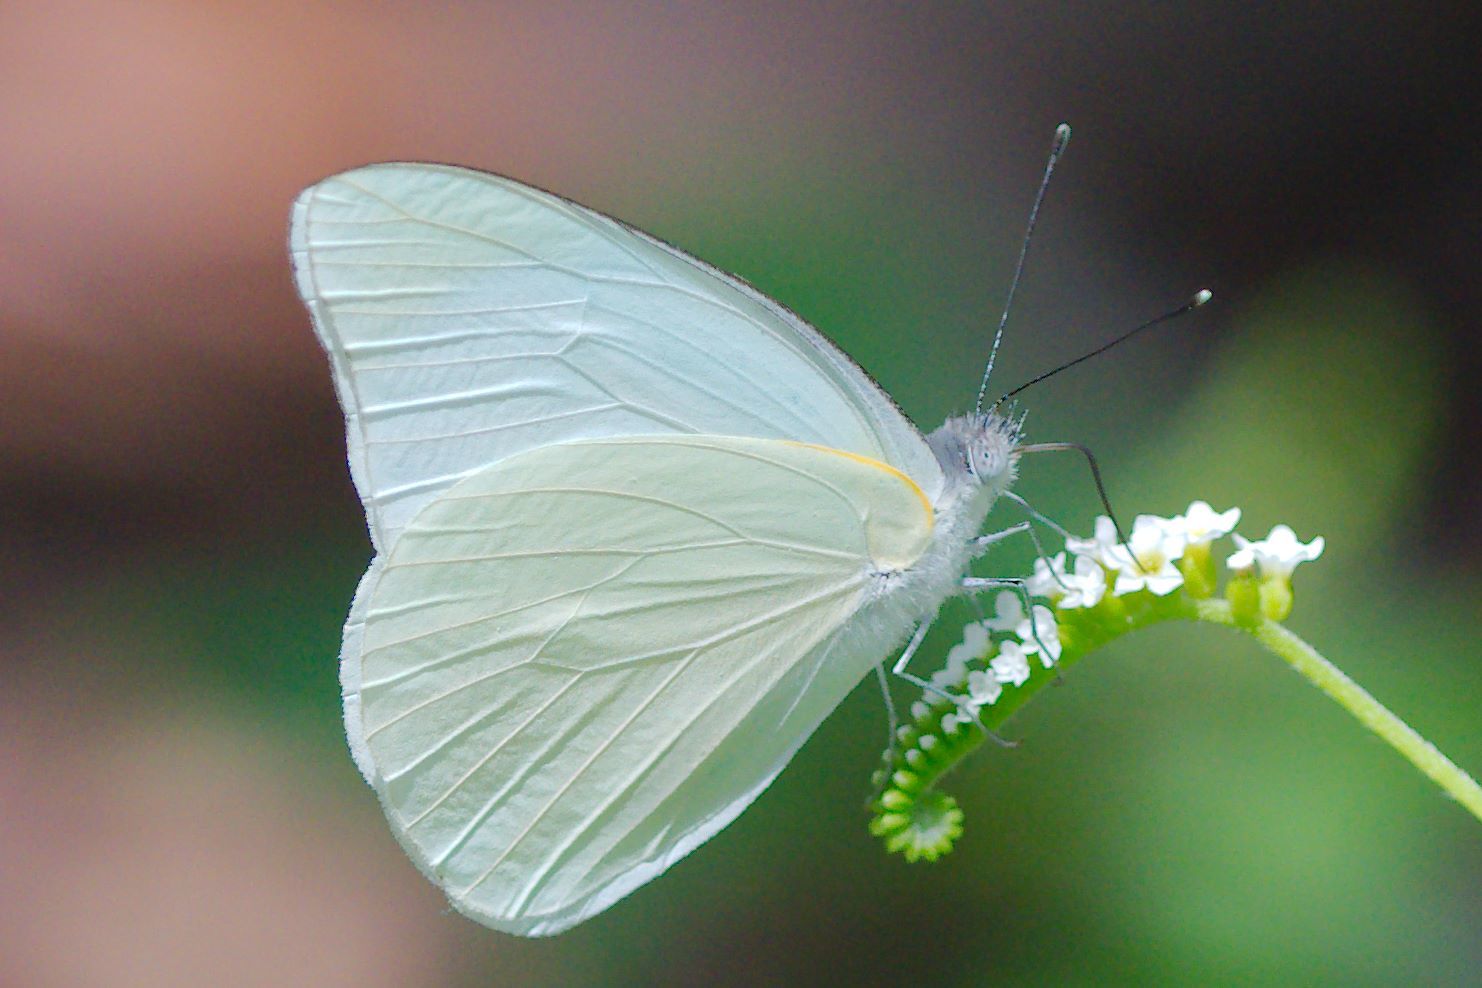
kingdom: Animalia
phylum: Arthropoda
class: Insecta
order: Lepidoptera
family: Pieridae
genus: Glutophrissa
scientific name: Glutophrissa drusilla
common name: Florida white
